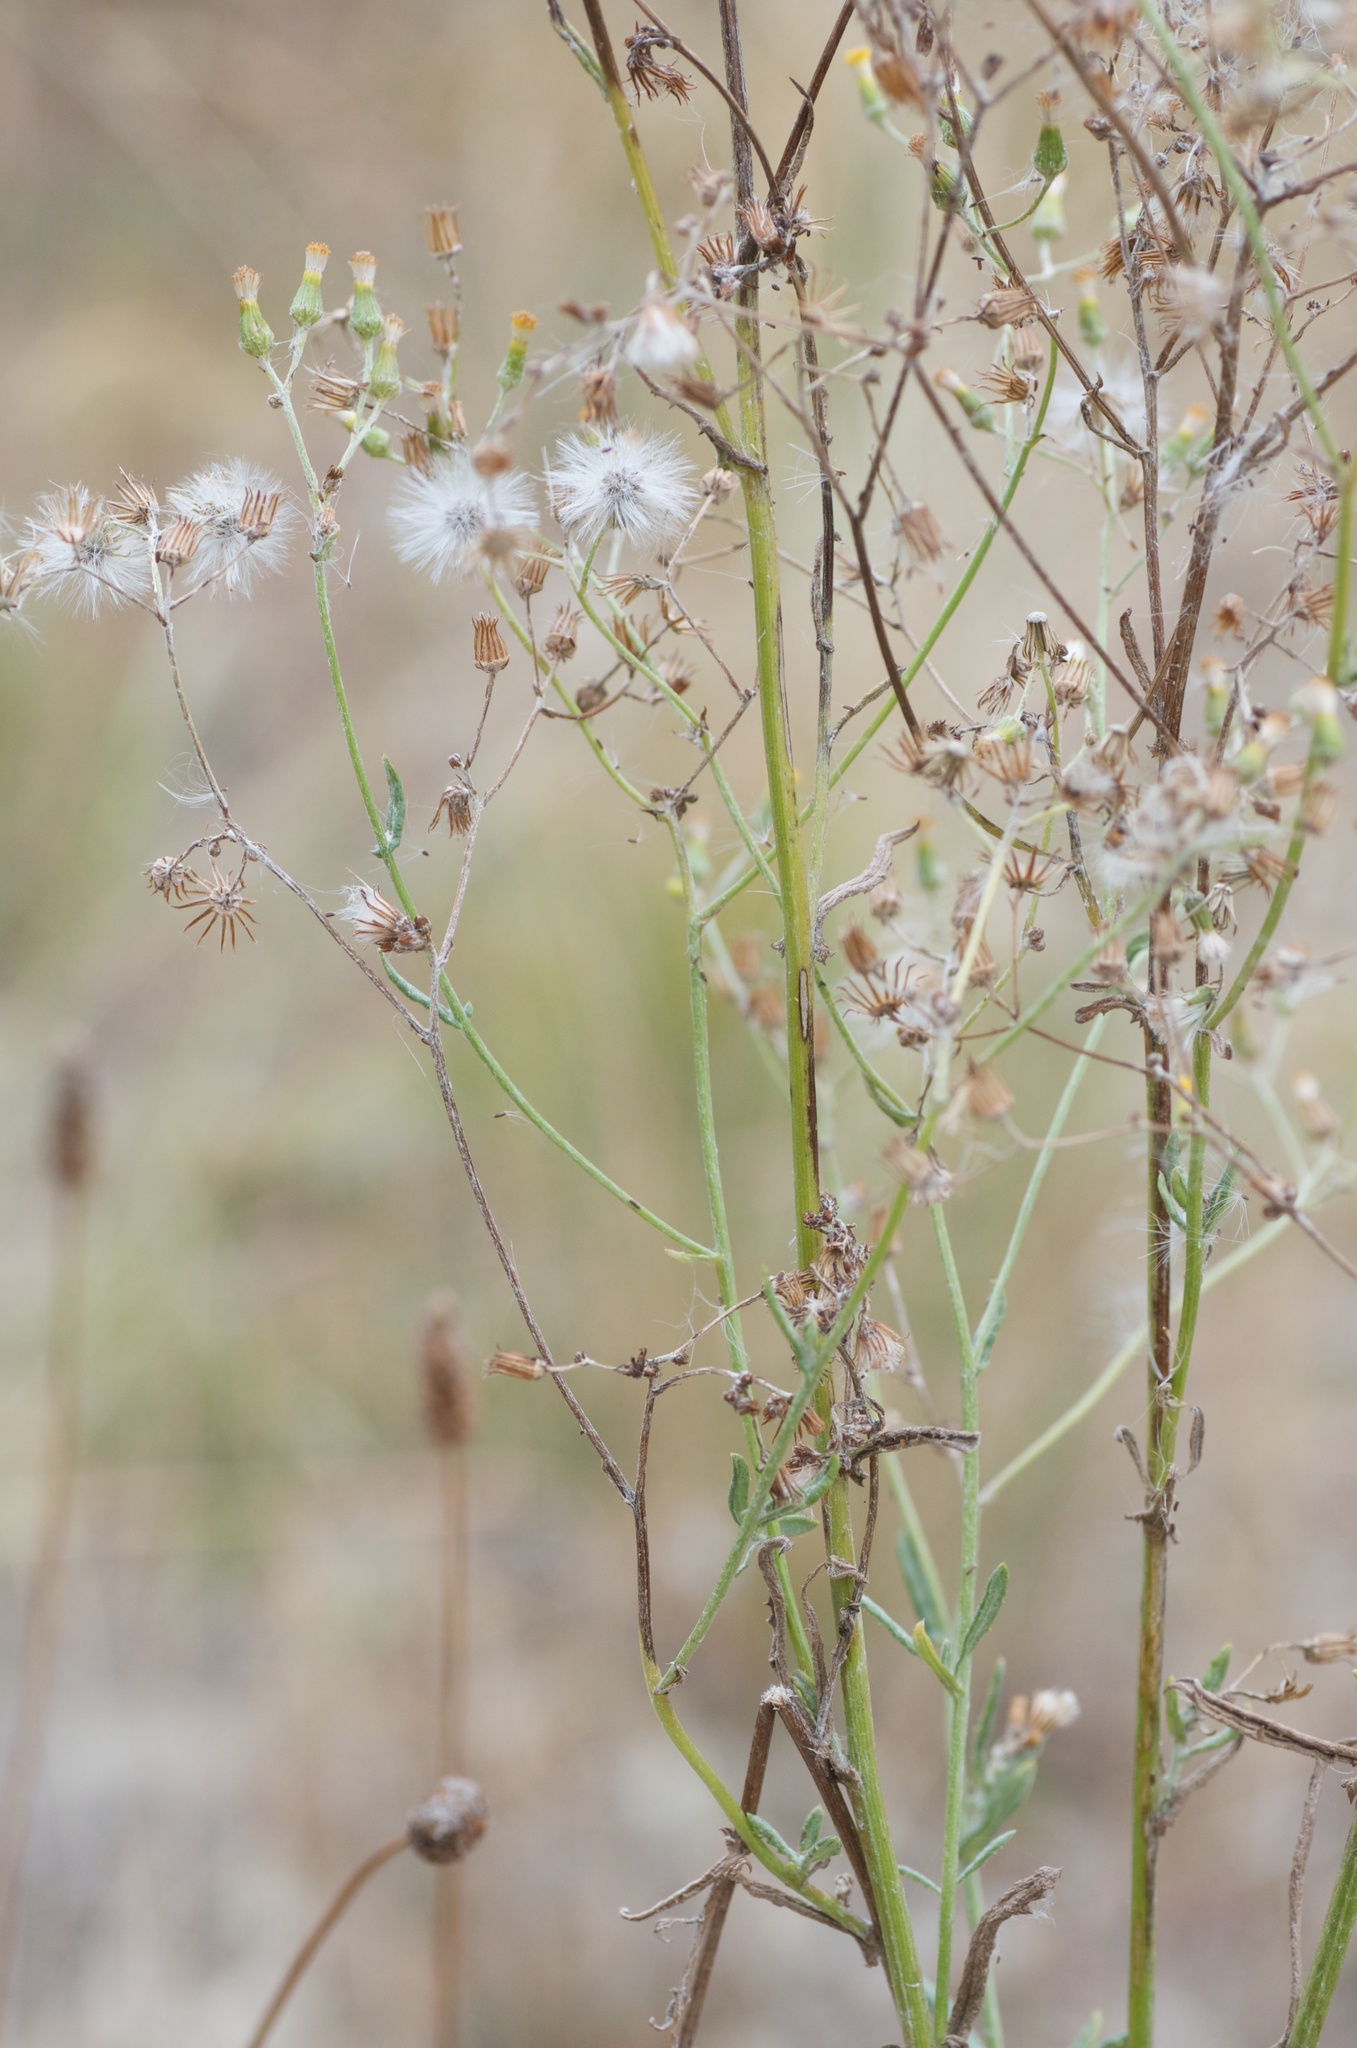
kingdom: Plantae
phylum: Tracheophyta
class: Magnoliopsida
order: Asterales
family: Asteraceae
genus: Senecio
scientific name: Senecio glomeratus
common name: Cutleaf burnweed
